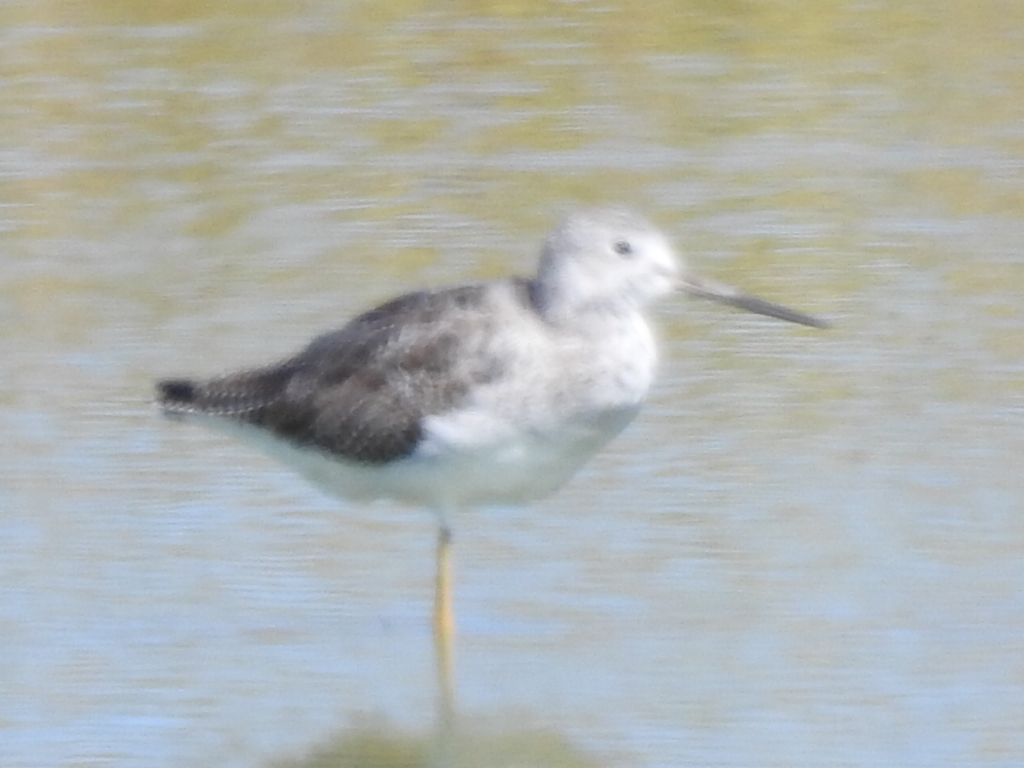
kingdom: Animalia
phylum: Chordata
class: Aves
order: Charadriiformes
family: Scolopacidae
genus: Tringa
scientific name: Tringa melanoleuca
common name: Greater yellowlegs
